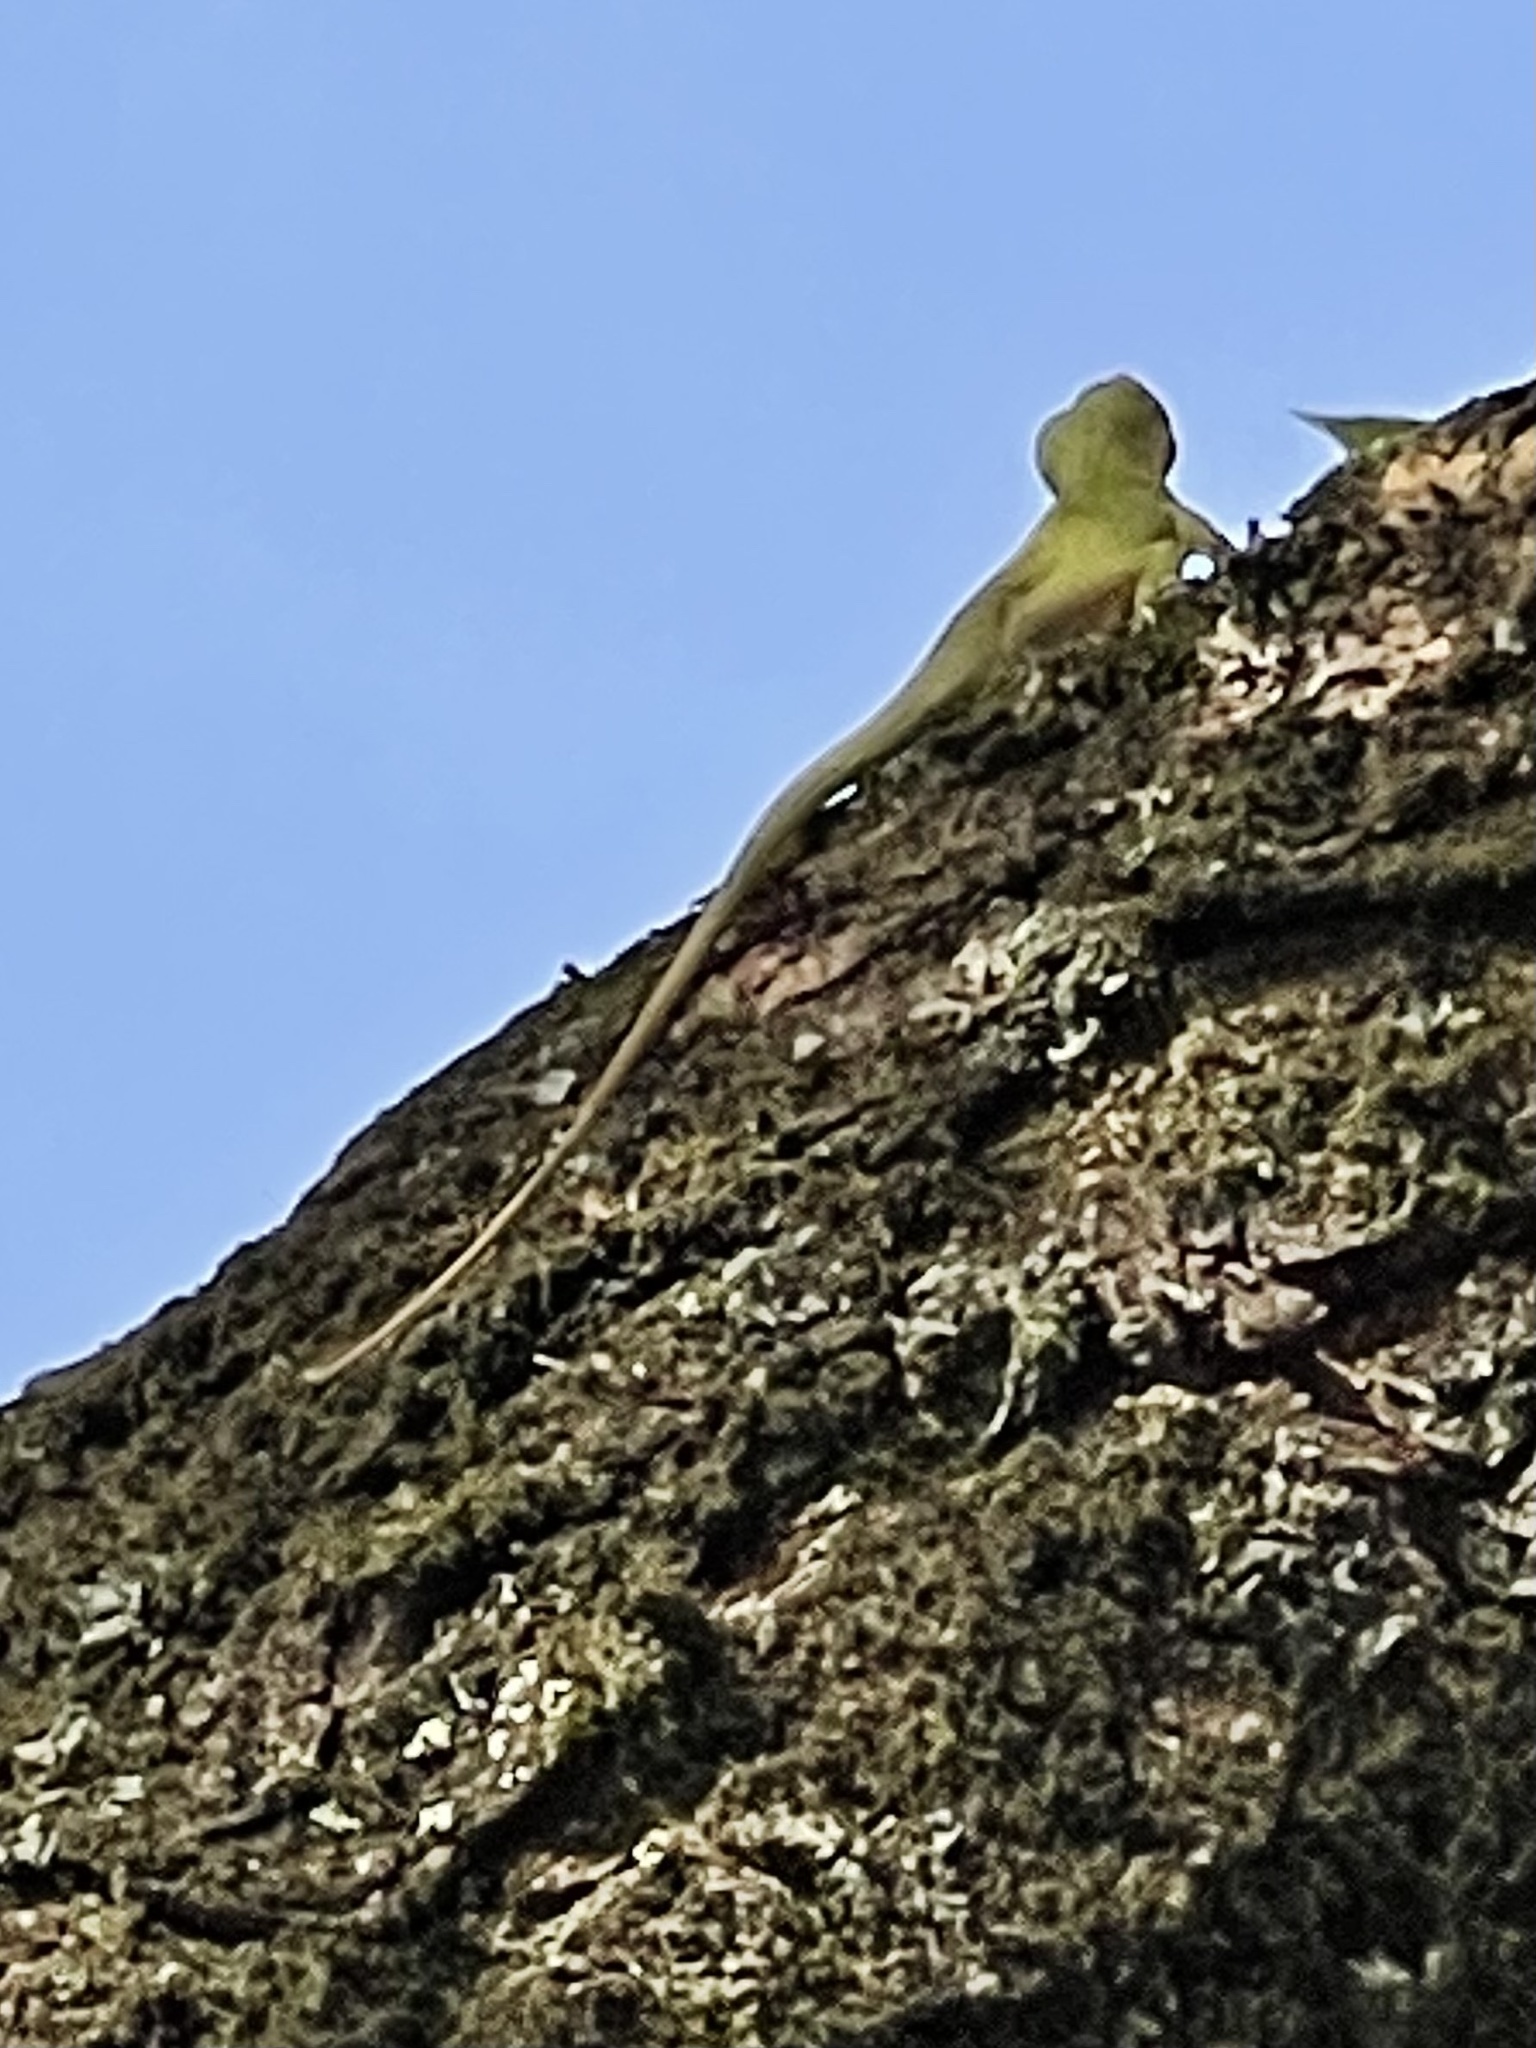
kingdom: Animalia
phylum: Chordata
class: Squamata
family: Dactyloidae
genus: Anolis
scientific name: Anolis carolinensis
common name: Green anole
